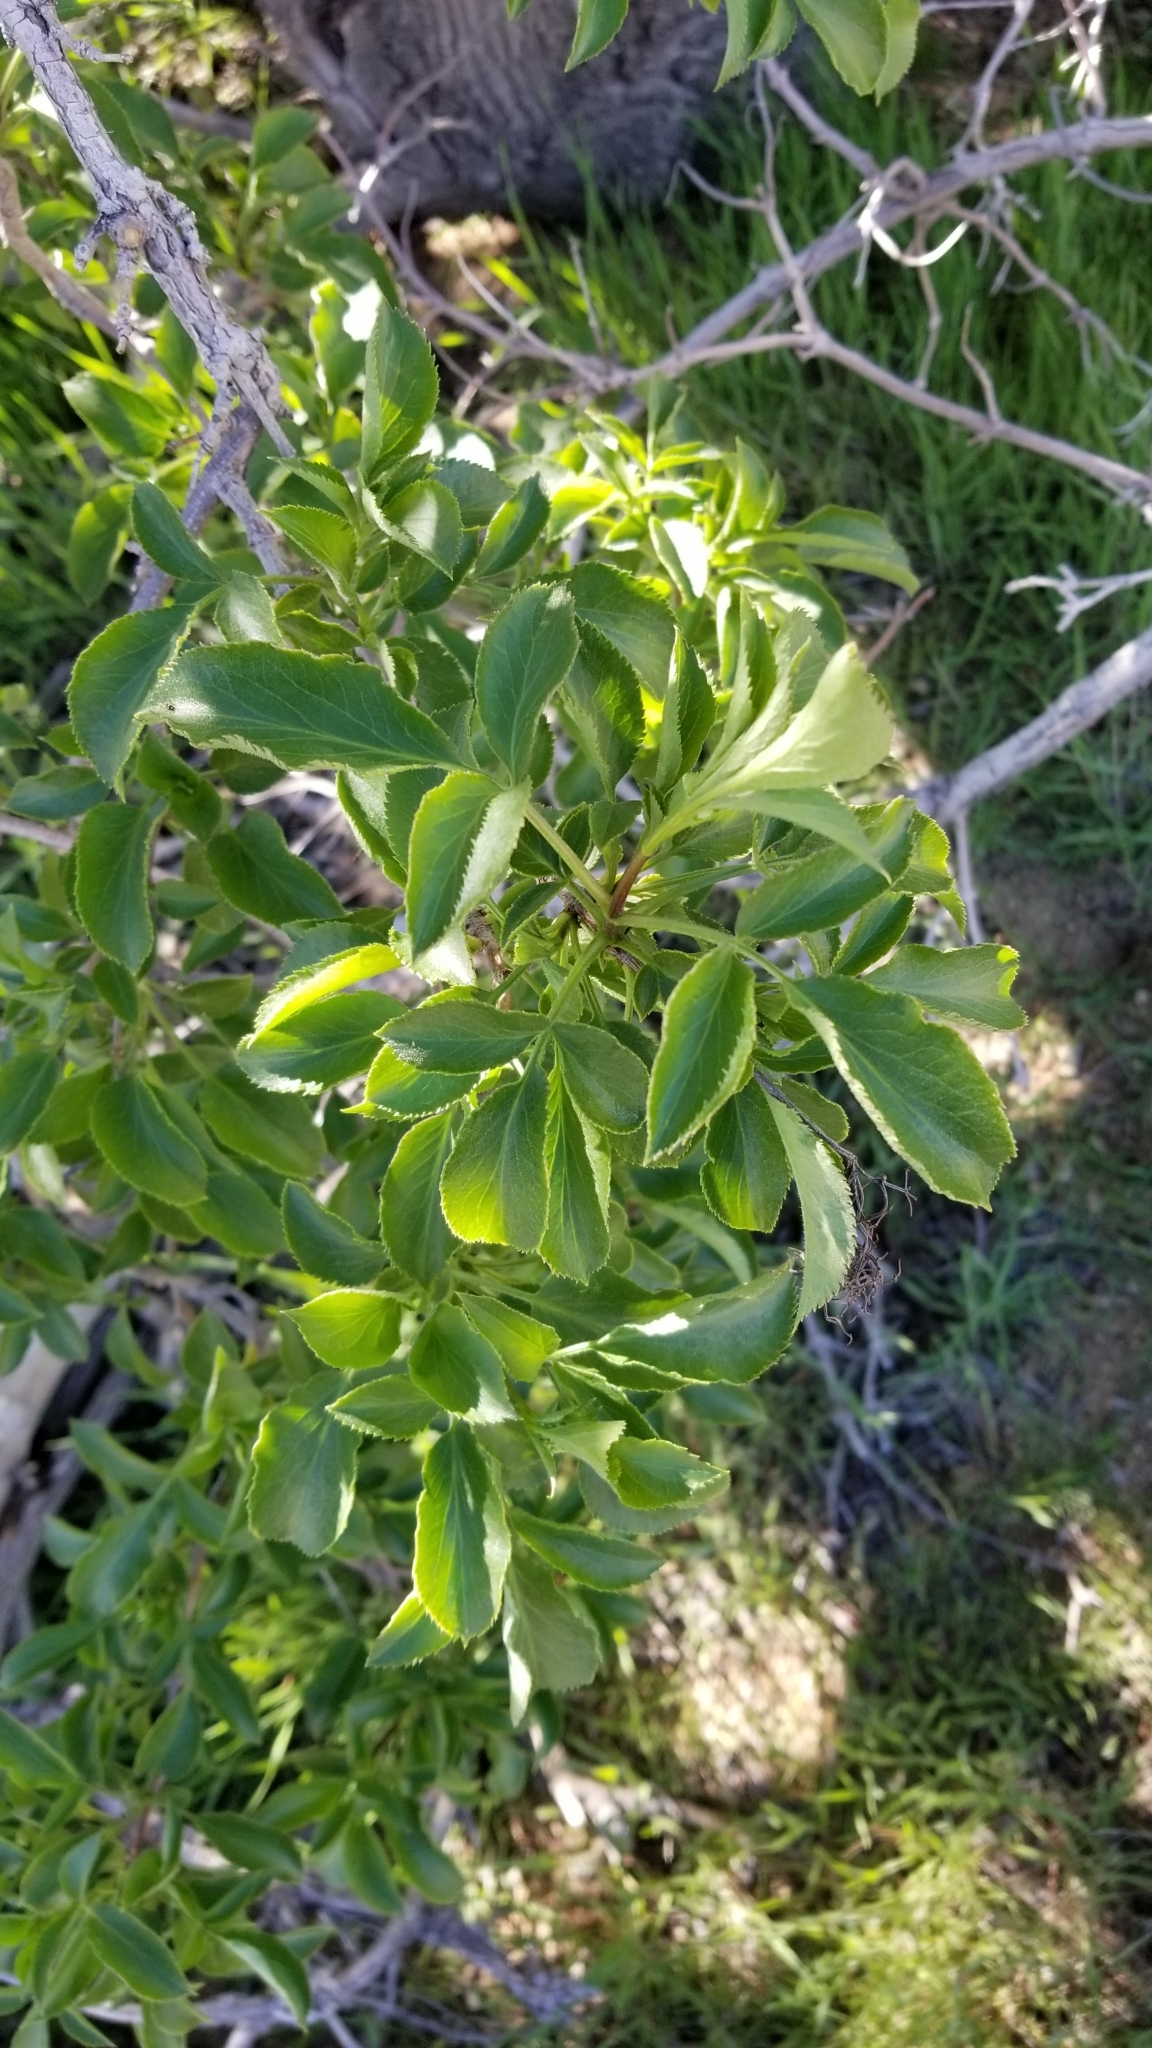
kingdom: Plantae
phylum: Tracheophyta
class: Magnoliopsida
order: Dipsacales
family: Viburnaceae
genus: Sambucus
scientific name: Sambucus cerulea
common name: Blue elder
